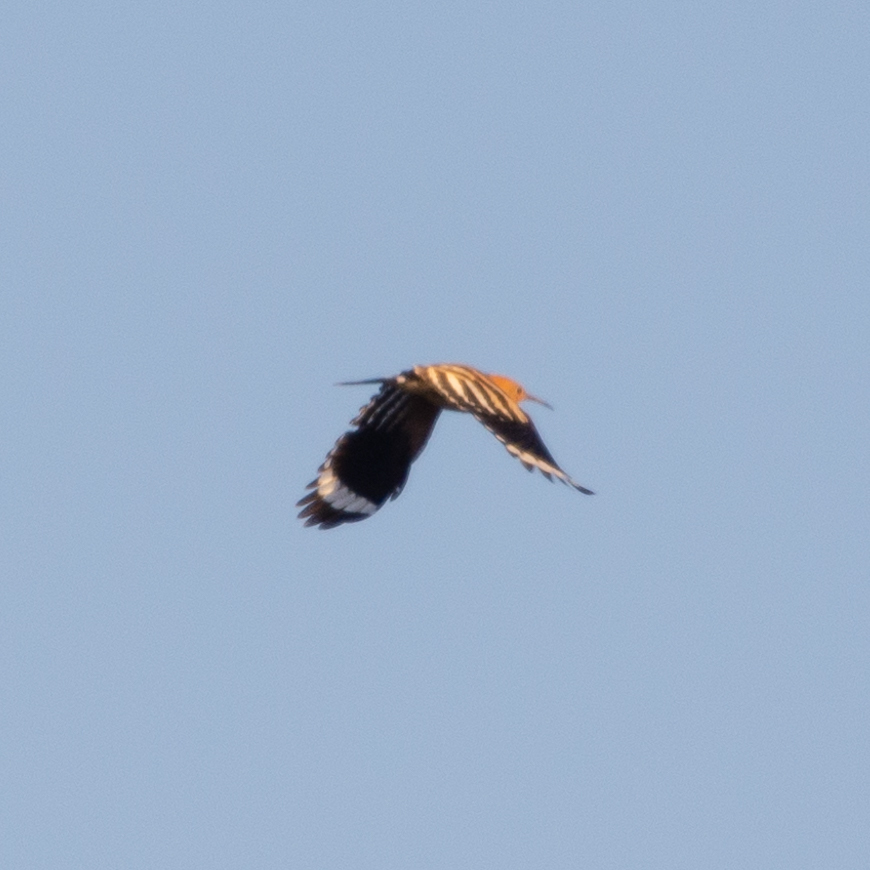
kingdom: Animalia
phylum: Chordata
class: Aves
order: Bucerotiformes
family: Upupidae
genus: Upupa
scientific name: Upupa epops
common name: Eurasian hoopoe
